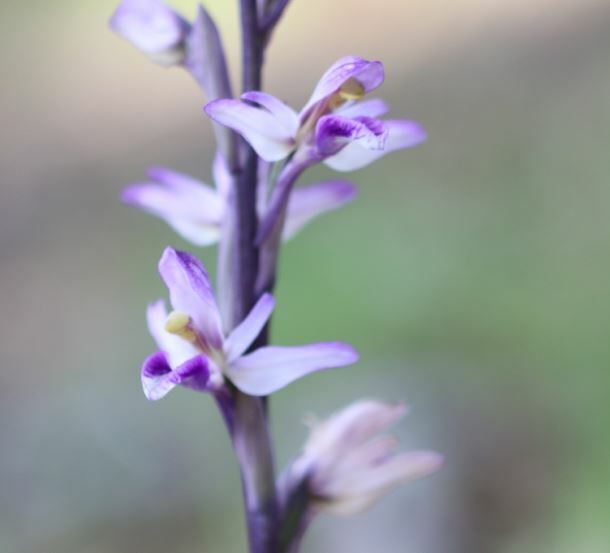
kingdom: Plantae
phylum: Tracheophyta
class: Liliopsida
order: Asparagales
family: Orchidaceae
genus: Limodorum
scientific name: Limodorum abortivum
